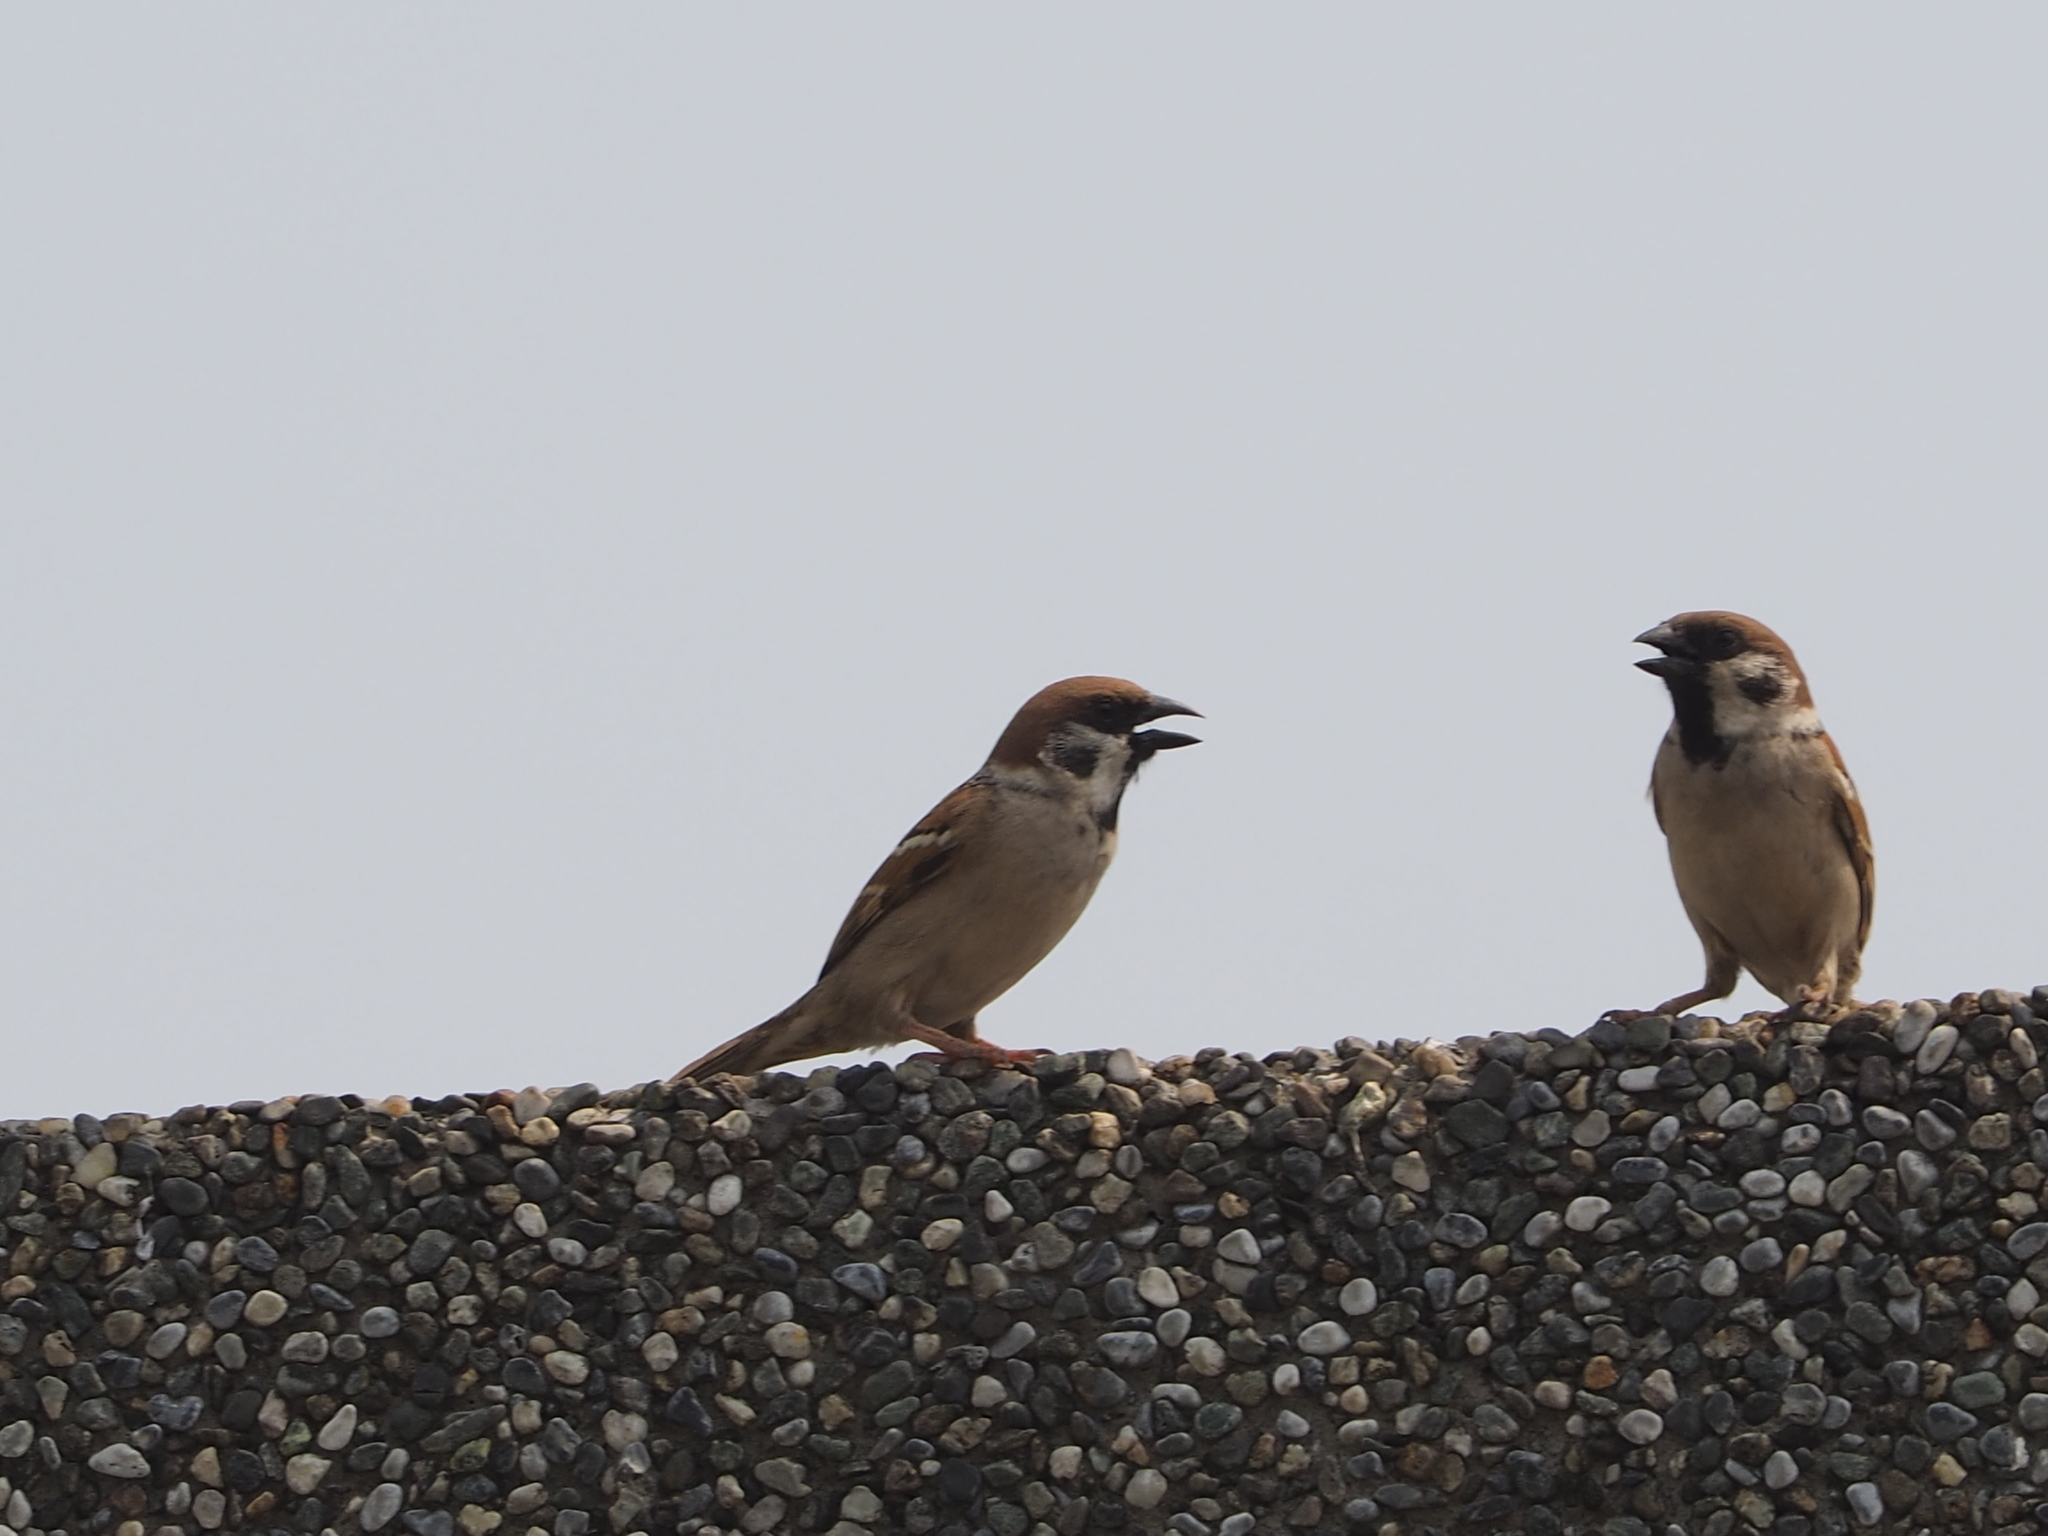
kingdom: Animalia
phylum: Chordata
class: Aves
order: Passeriformes
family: Passeridae
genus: Passer
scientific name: Passer montanus
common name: Eurasian tree sparrow
